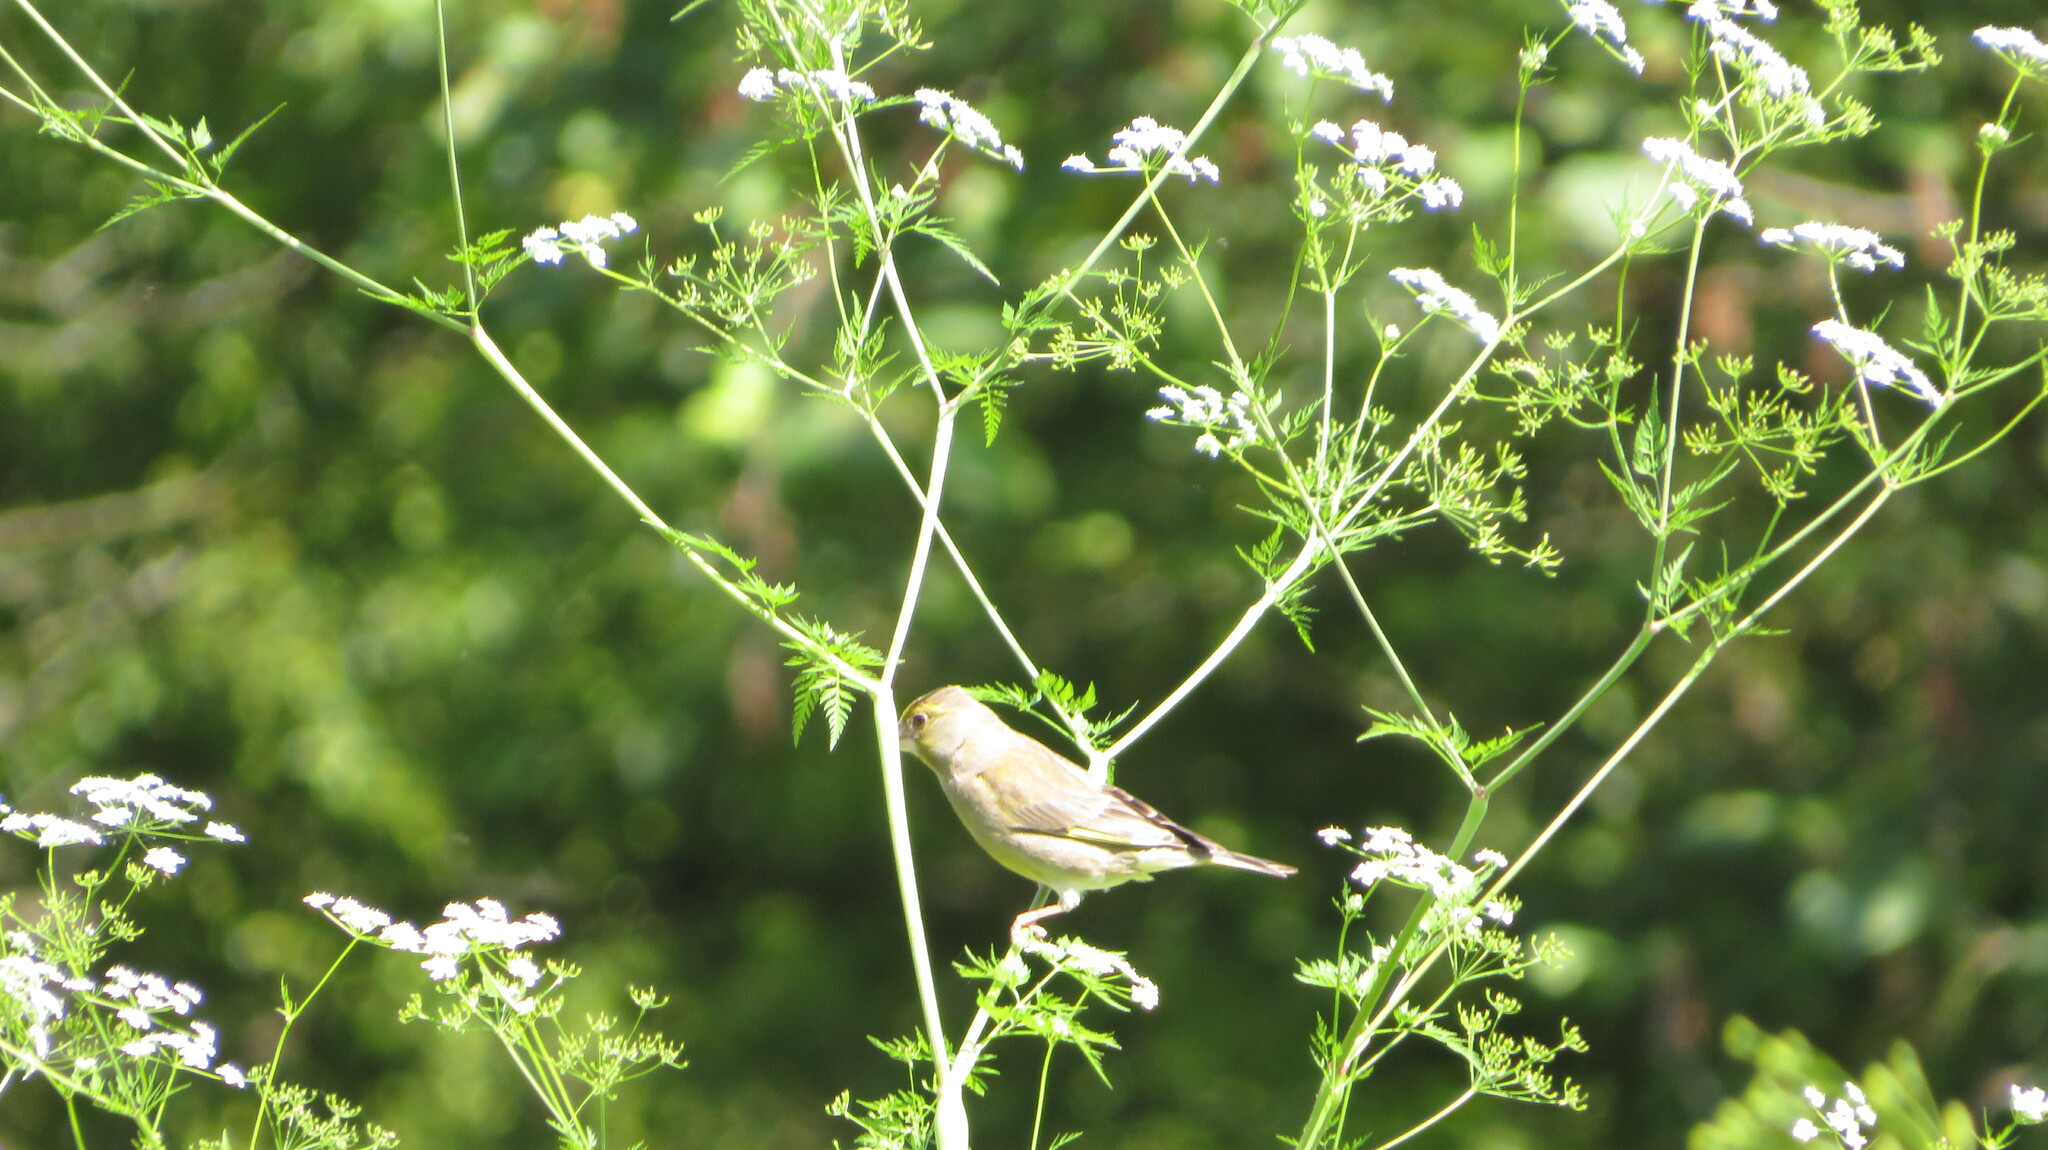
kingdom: Plantae
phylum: Tracheophyta
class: Liliopsida
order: Poales
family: Poaceae
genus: Chloris
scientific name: Chloris chloris
